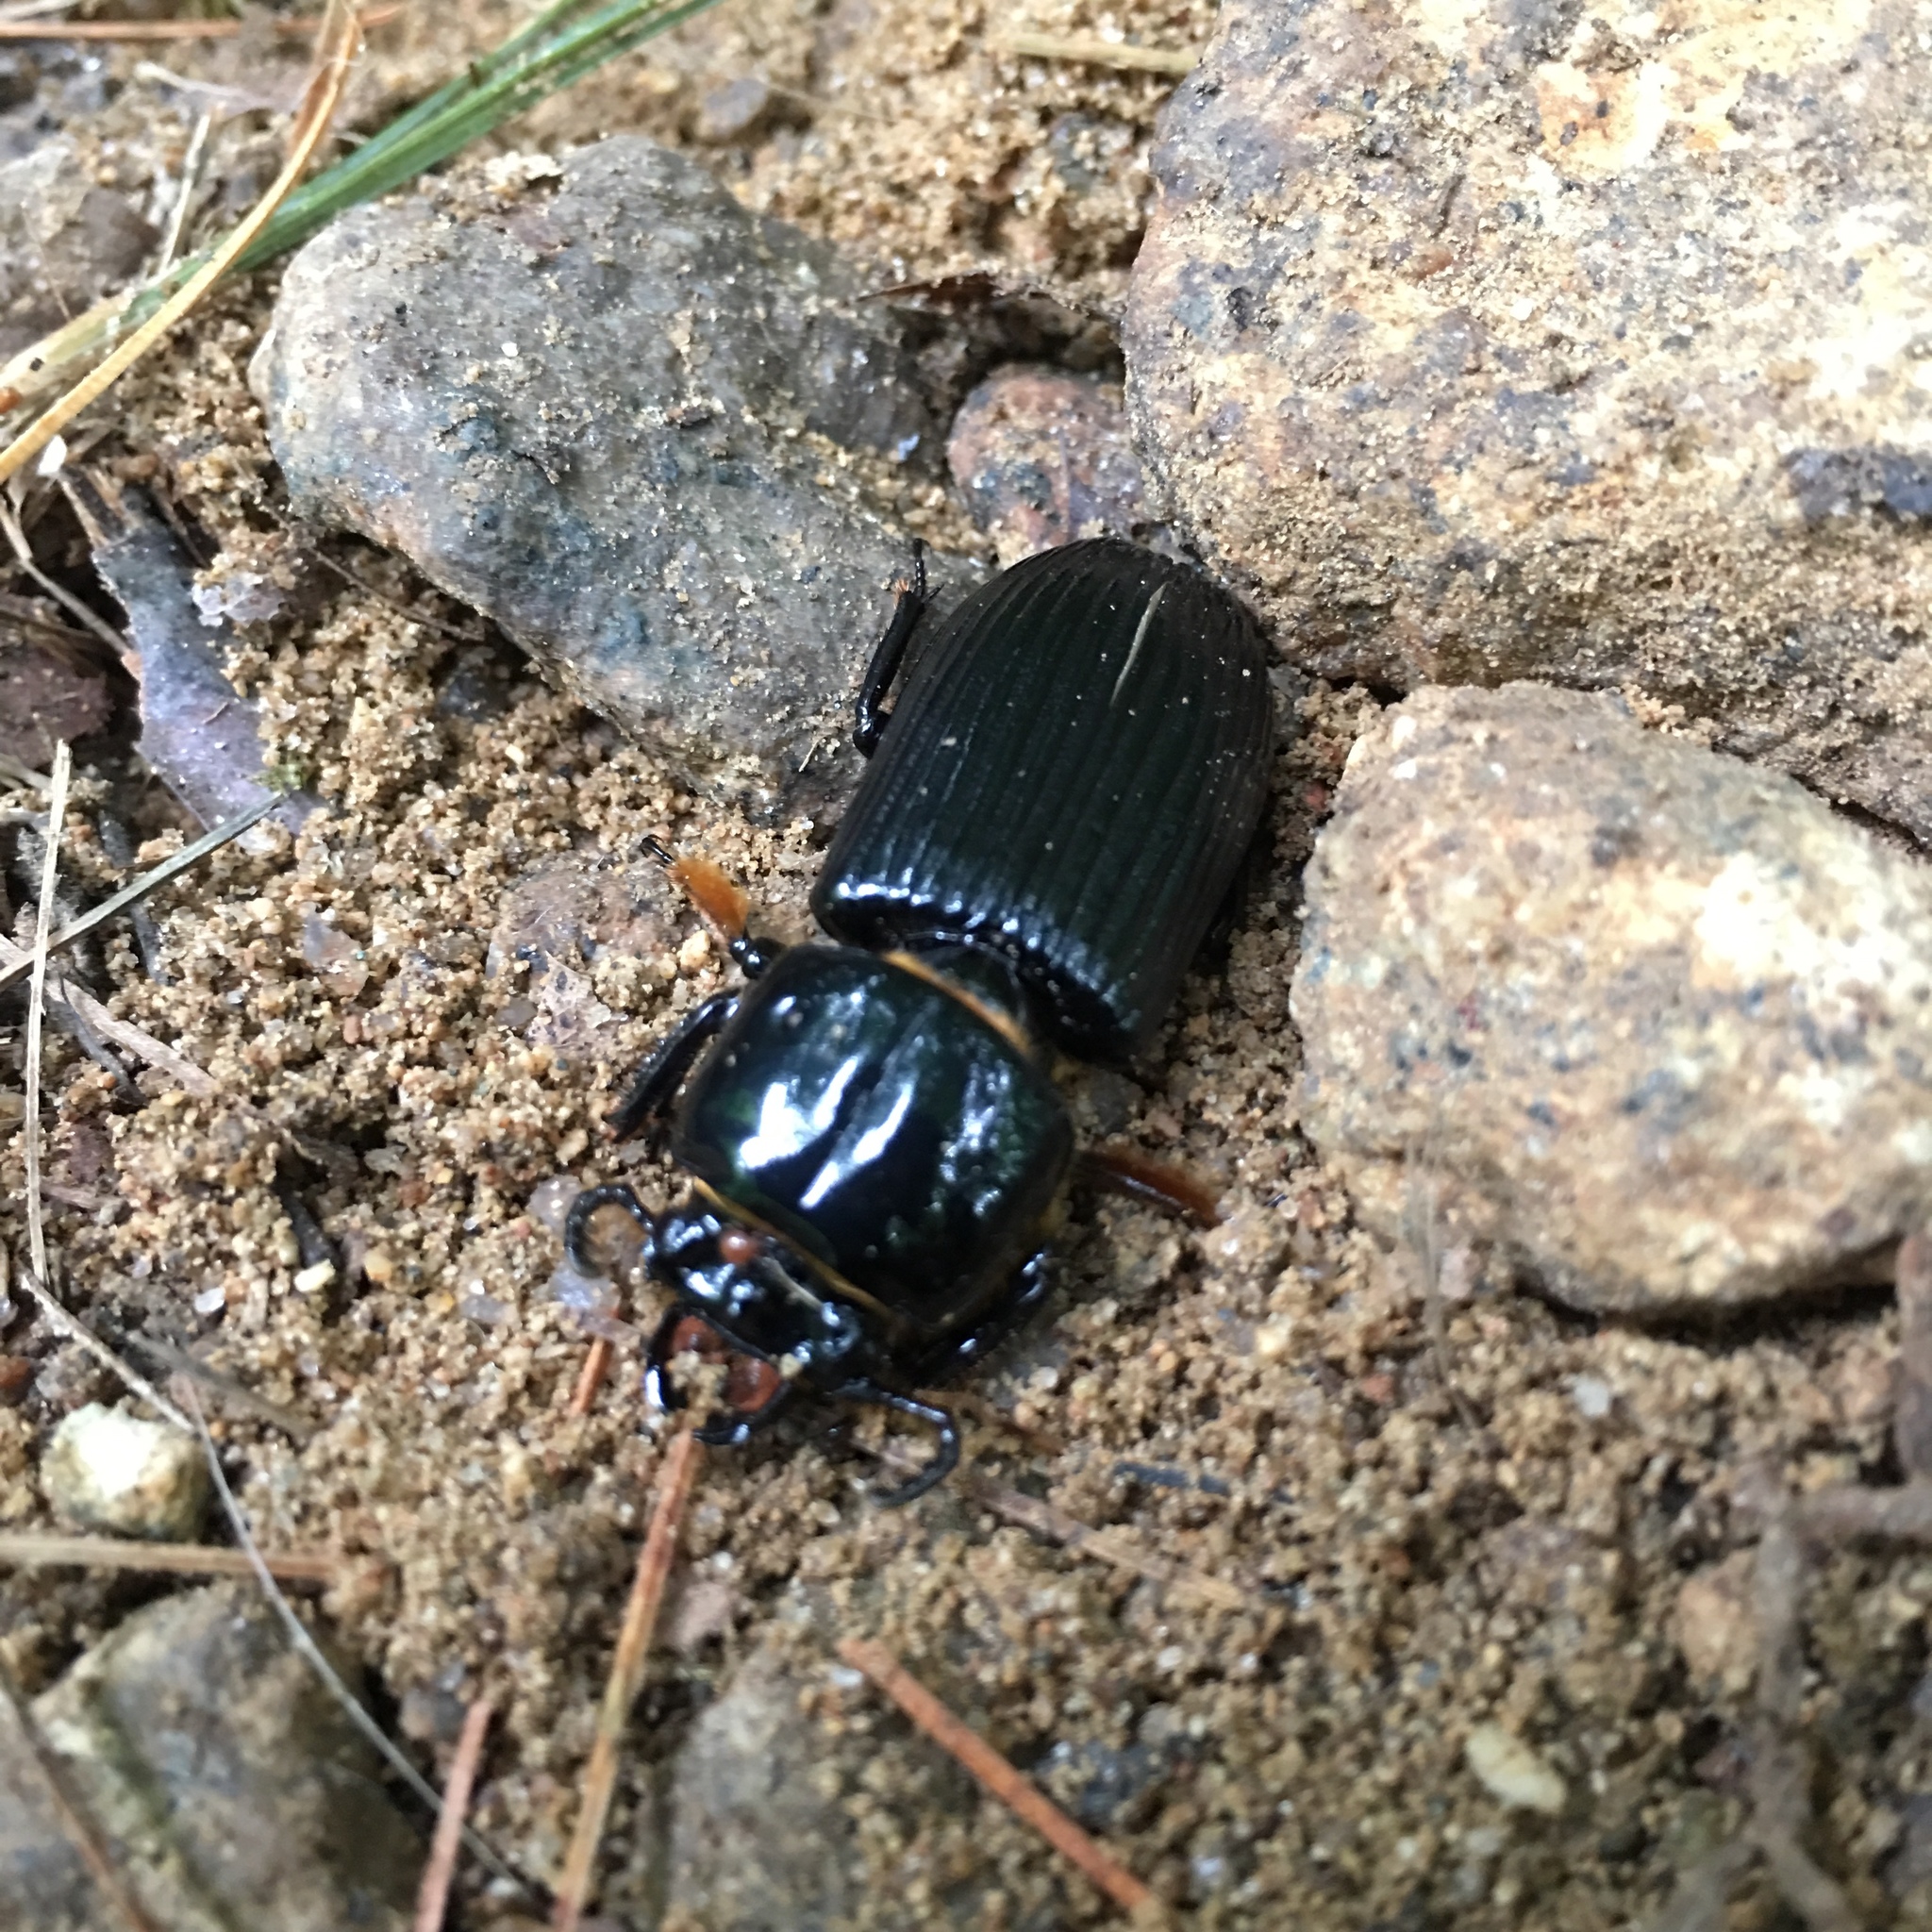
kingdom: Animalia
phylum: Arthropoda
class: Insecta
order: Coleoptera
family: Passalidae
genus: Odontotaenius
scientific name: Odontotaenius disjunctus
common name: Patent leather beetle
